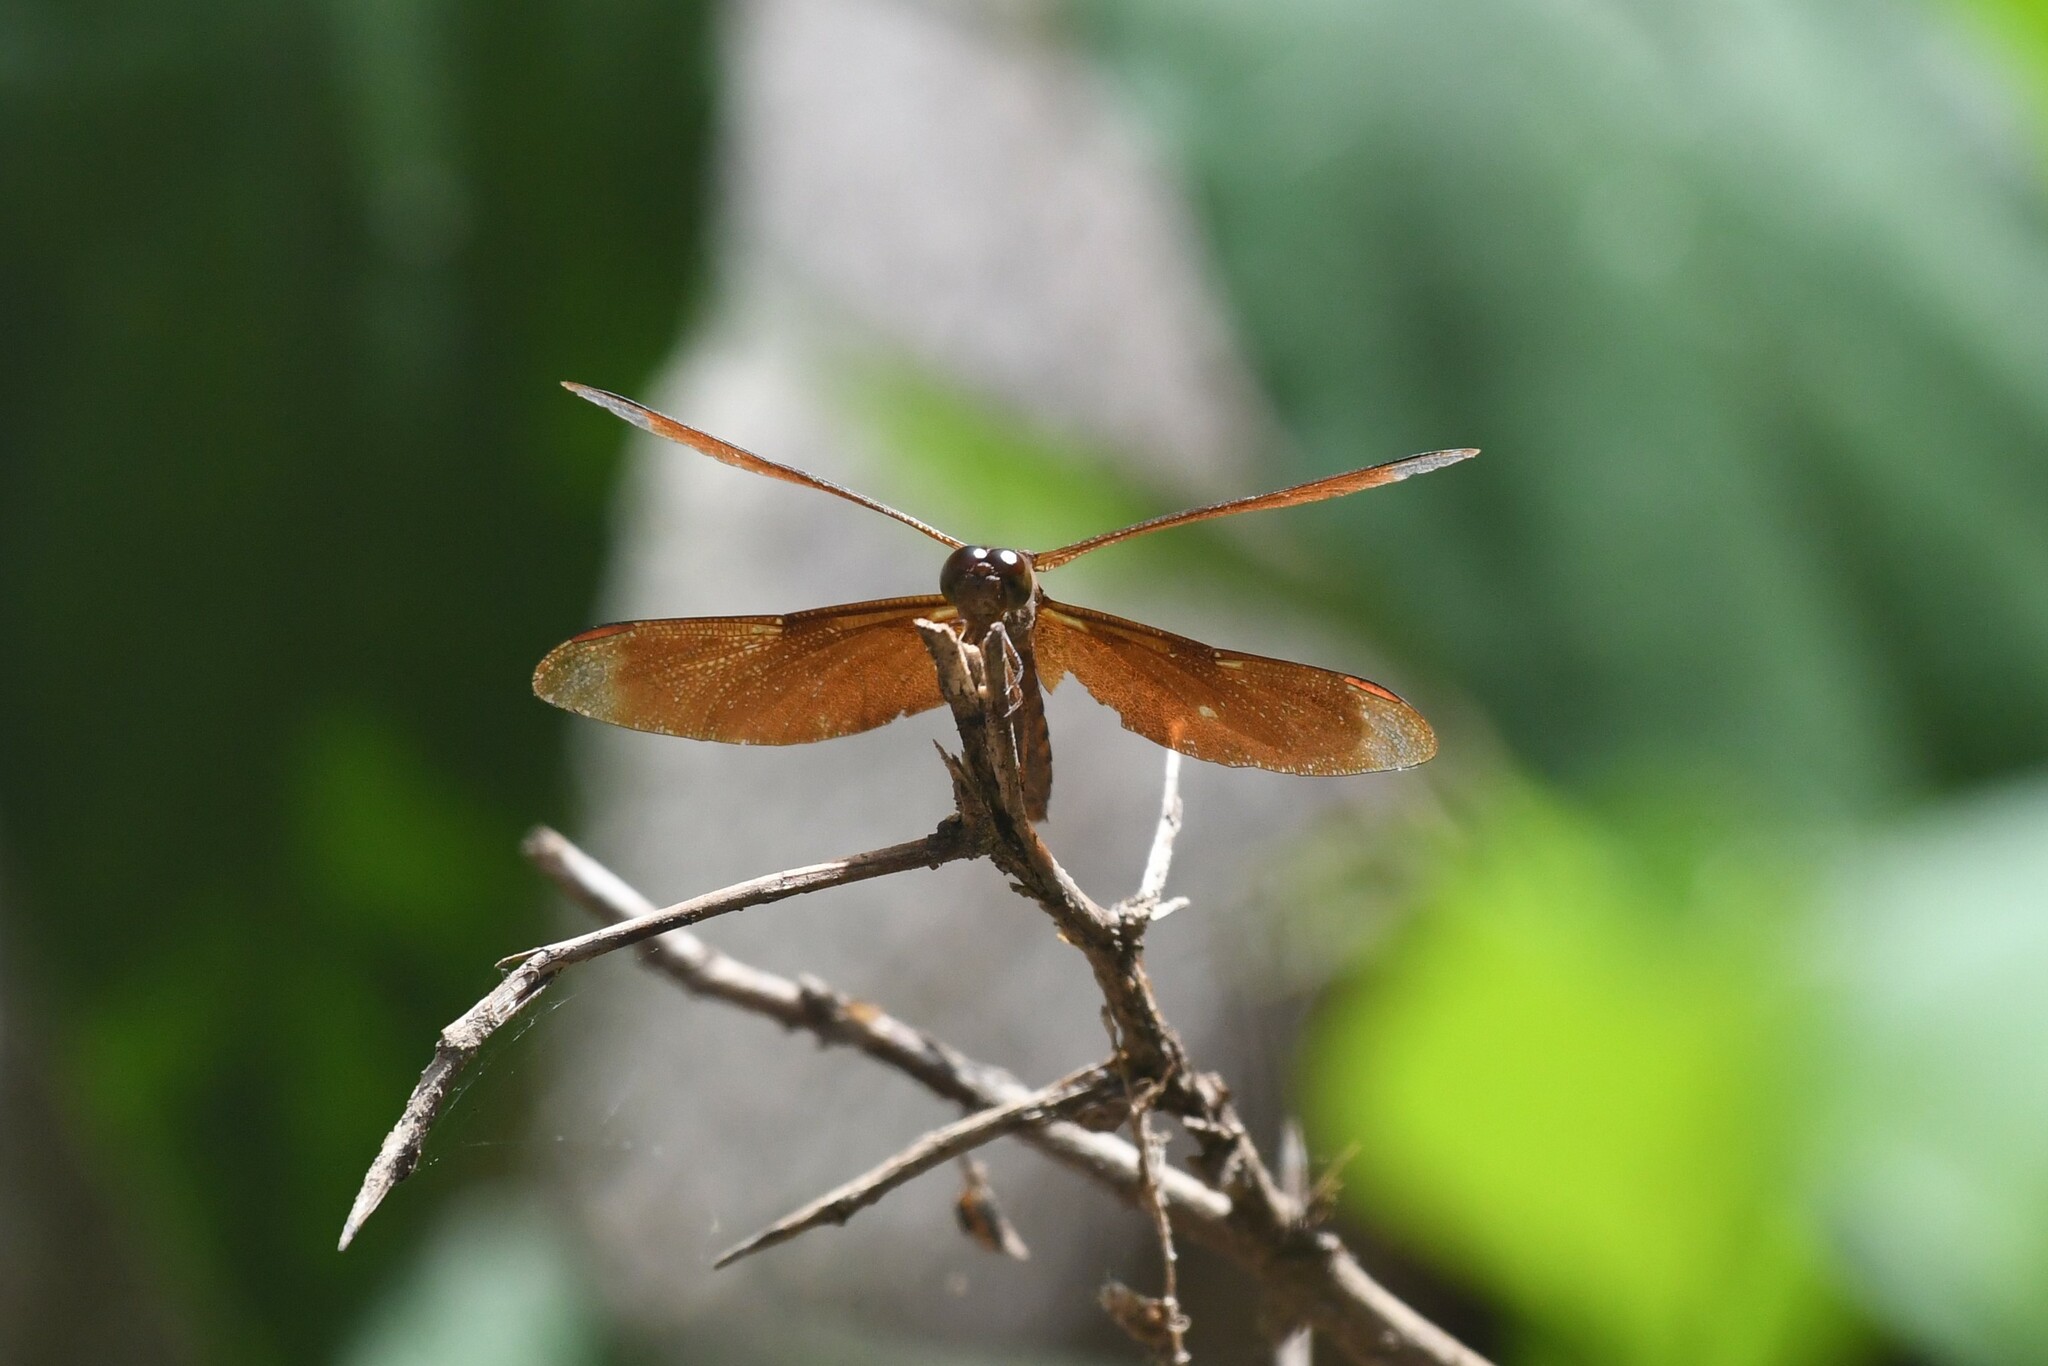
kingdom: Animalia
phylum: Arthropoda
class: Insecta
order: Odonata
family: Libellulidae
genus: Neurothemis
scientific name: Neurothemis fulvia
